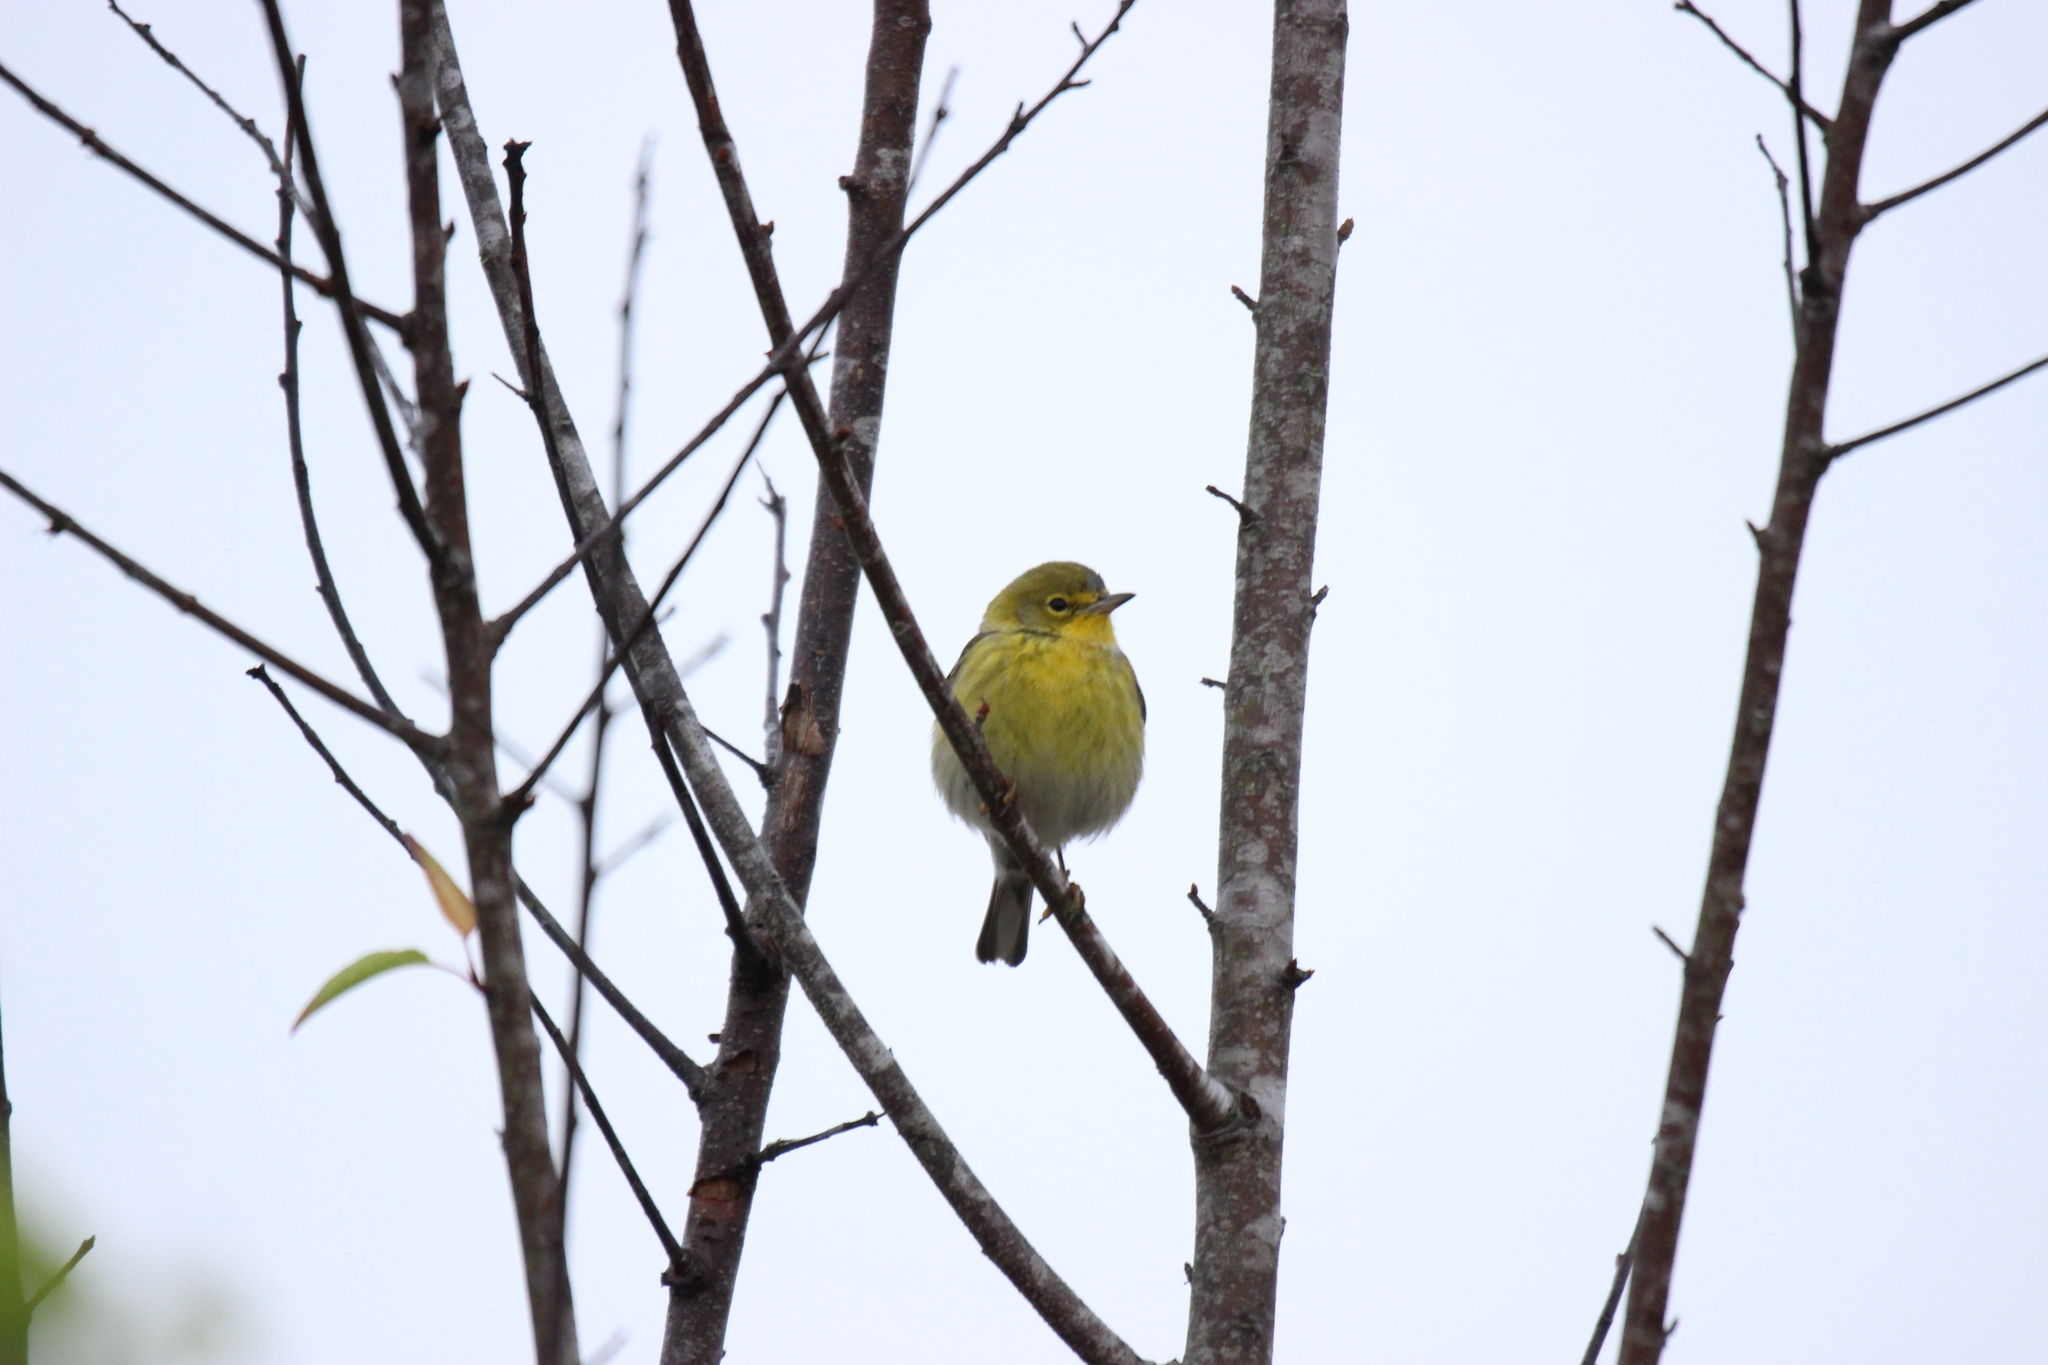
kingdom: Animalia
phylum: Chordata
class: Aves
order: Passeriformes
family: Parulidae
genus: Setophaga
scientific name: Setophaga pinus
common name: Pine warbler
